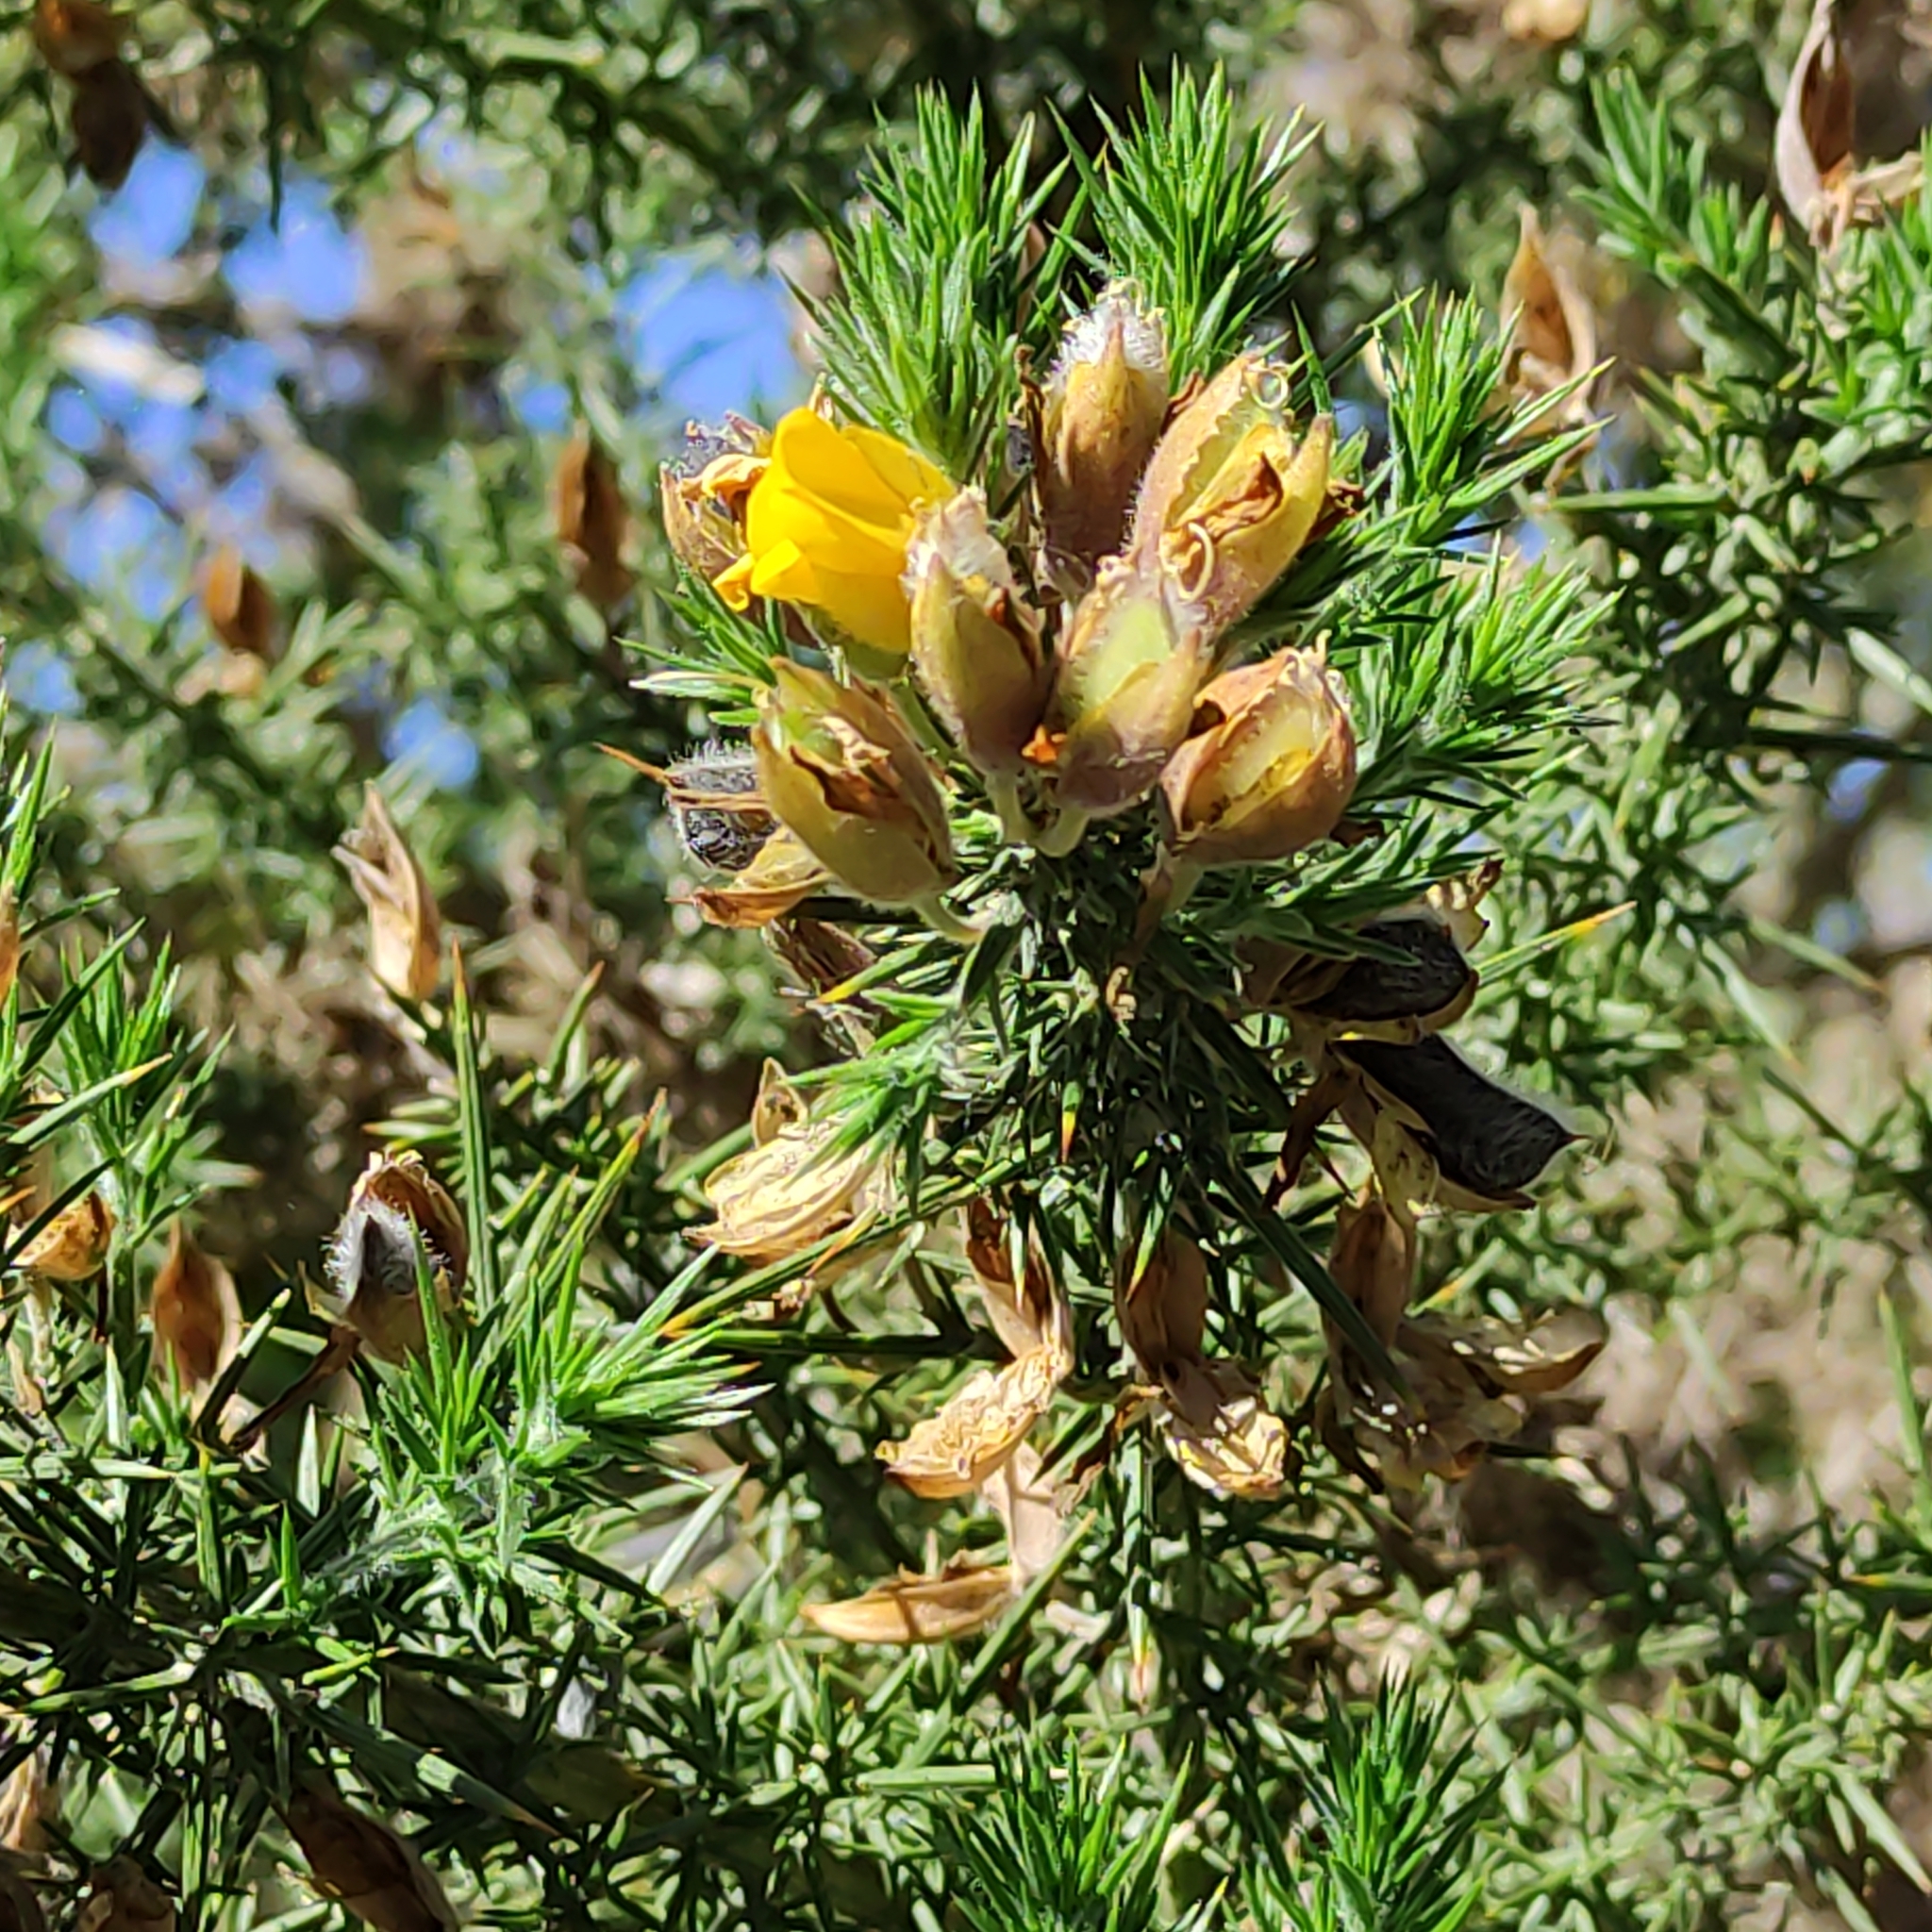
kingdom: Plantae
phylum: Tracheophyta
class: Magnoliopsida
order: Fabales
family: Fabaceae
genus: Ulex
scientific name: Ulex europaeus
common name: Common gorse
